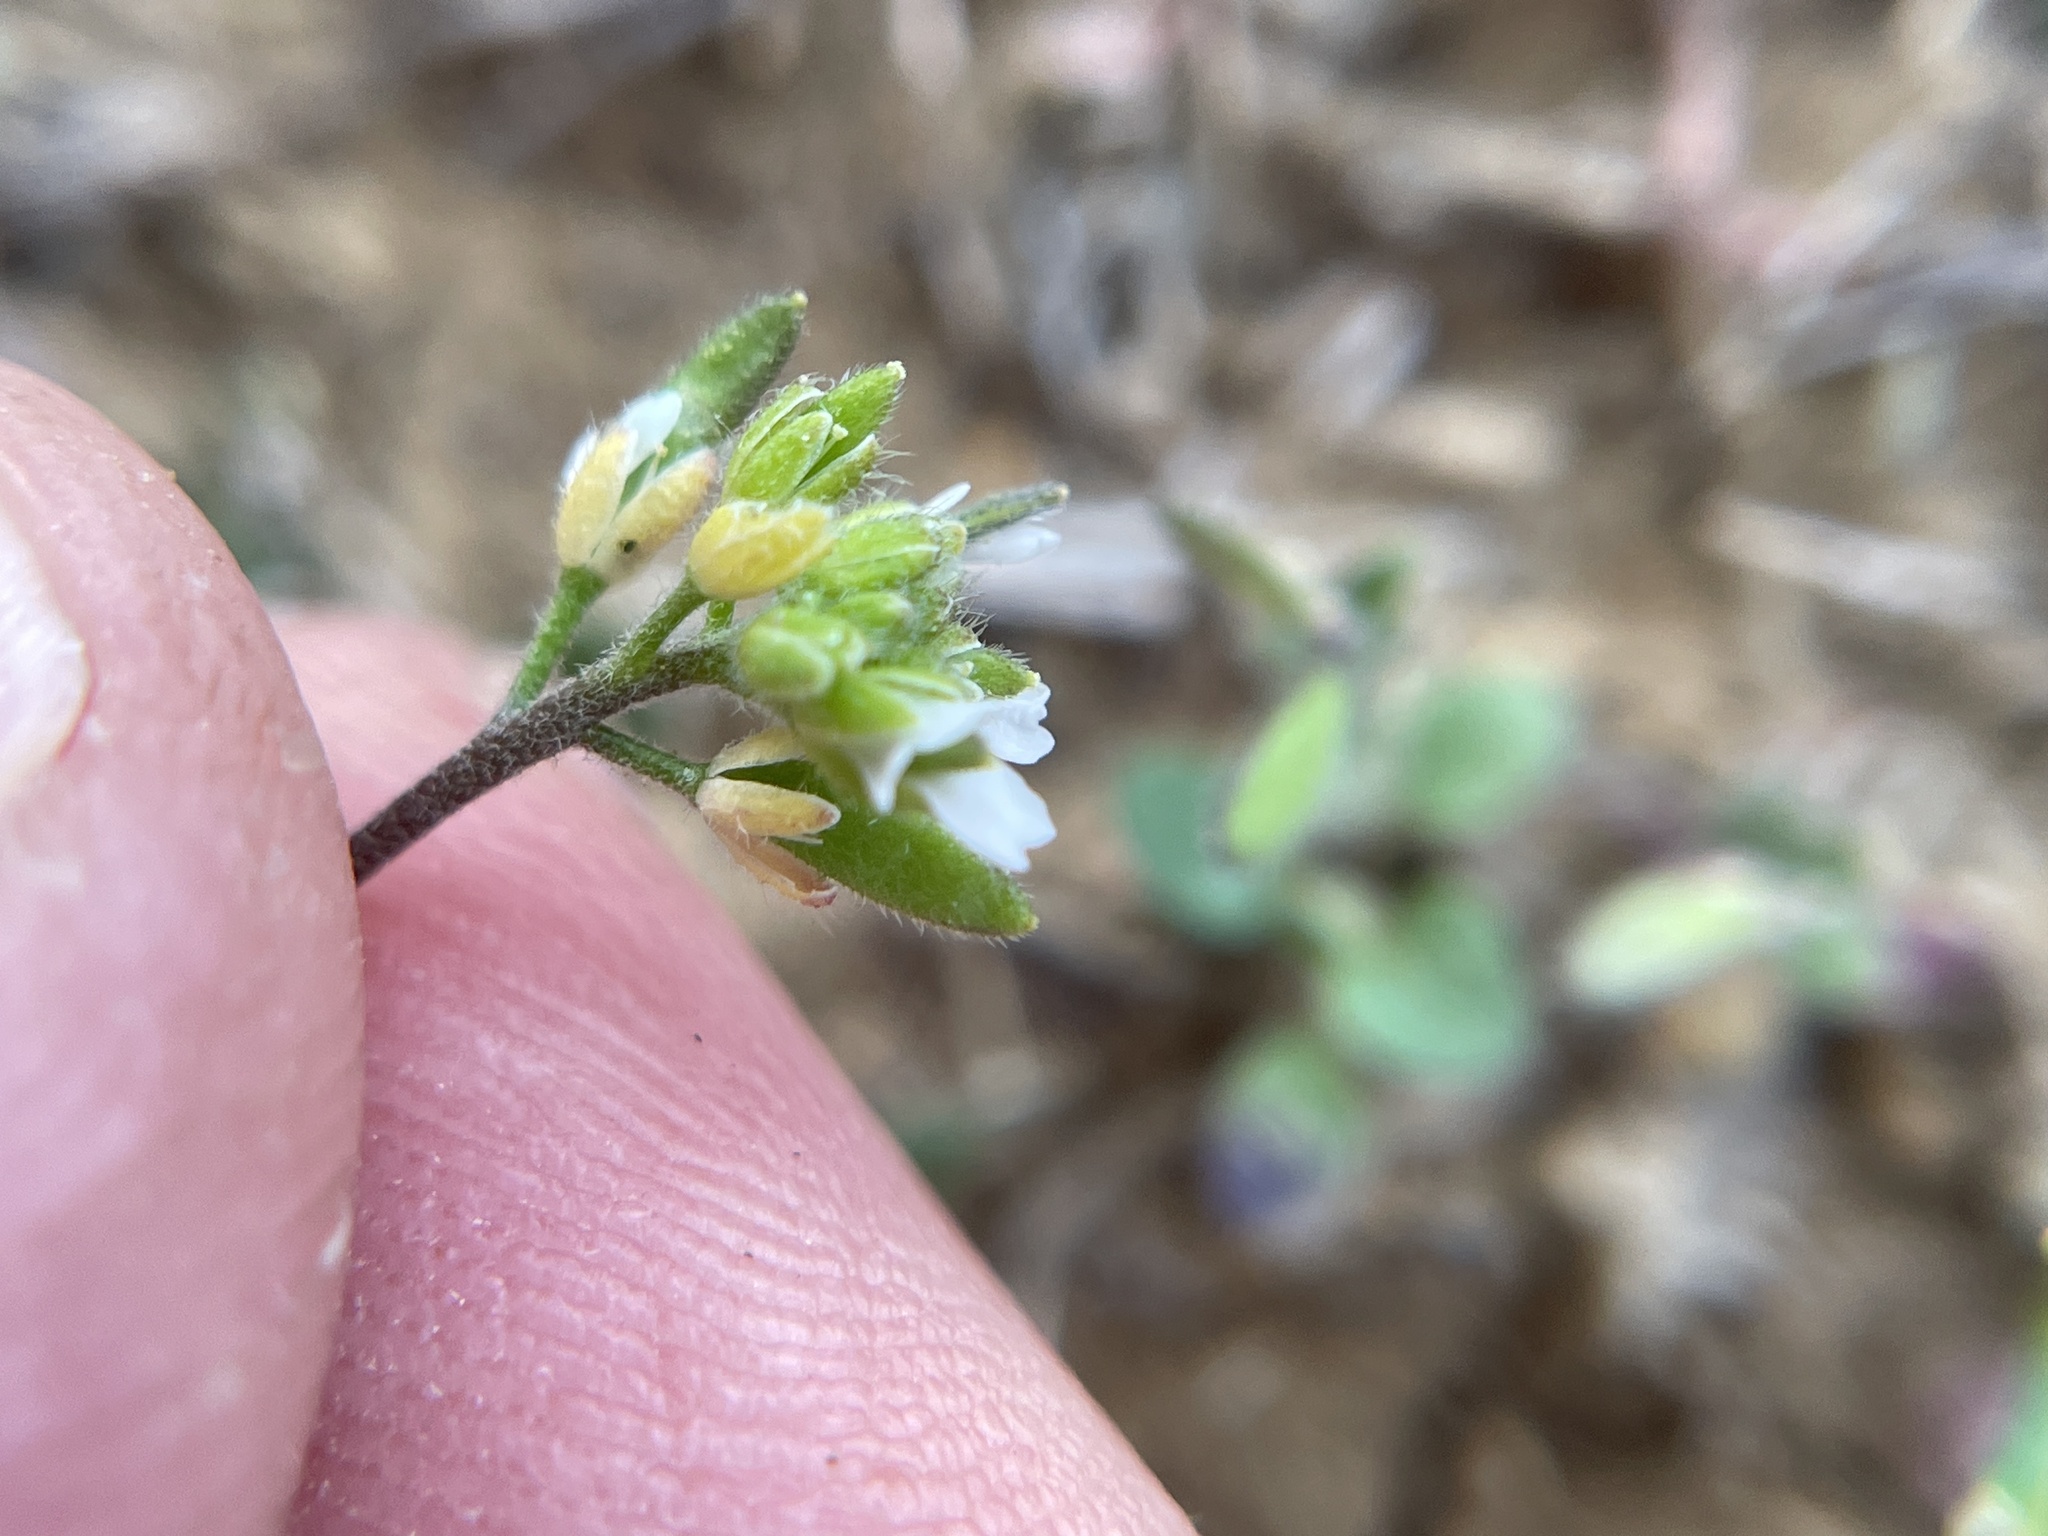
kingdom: Plantae
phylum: Tracheophyta
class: Magnoliopsida
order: Brassicales
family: Brassicaceae
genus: Tomostima
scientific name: Tomostima cuneifolia
